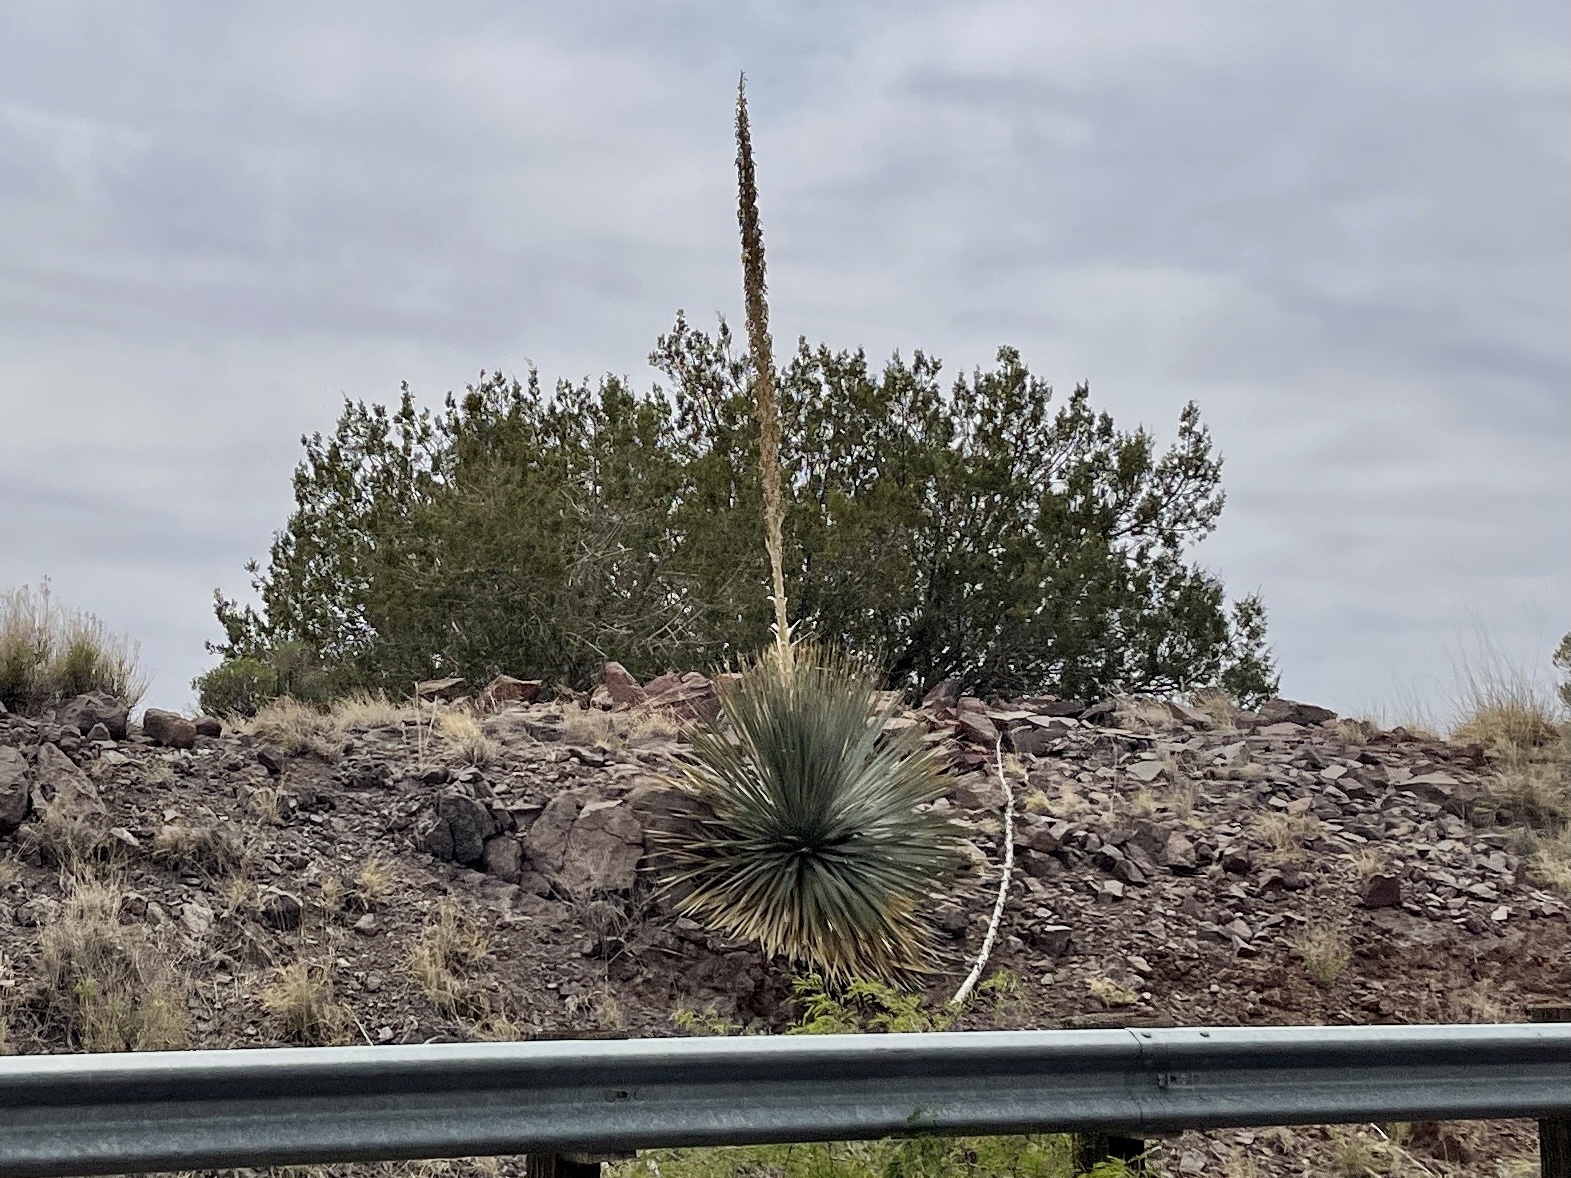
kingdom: Plantae
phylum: Tracheophyta
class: Liliopsida
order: Asparagales
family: Asparagaceae
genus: Dasylirion
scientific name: Dasylirion wheeleri
